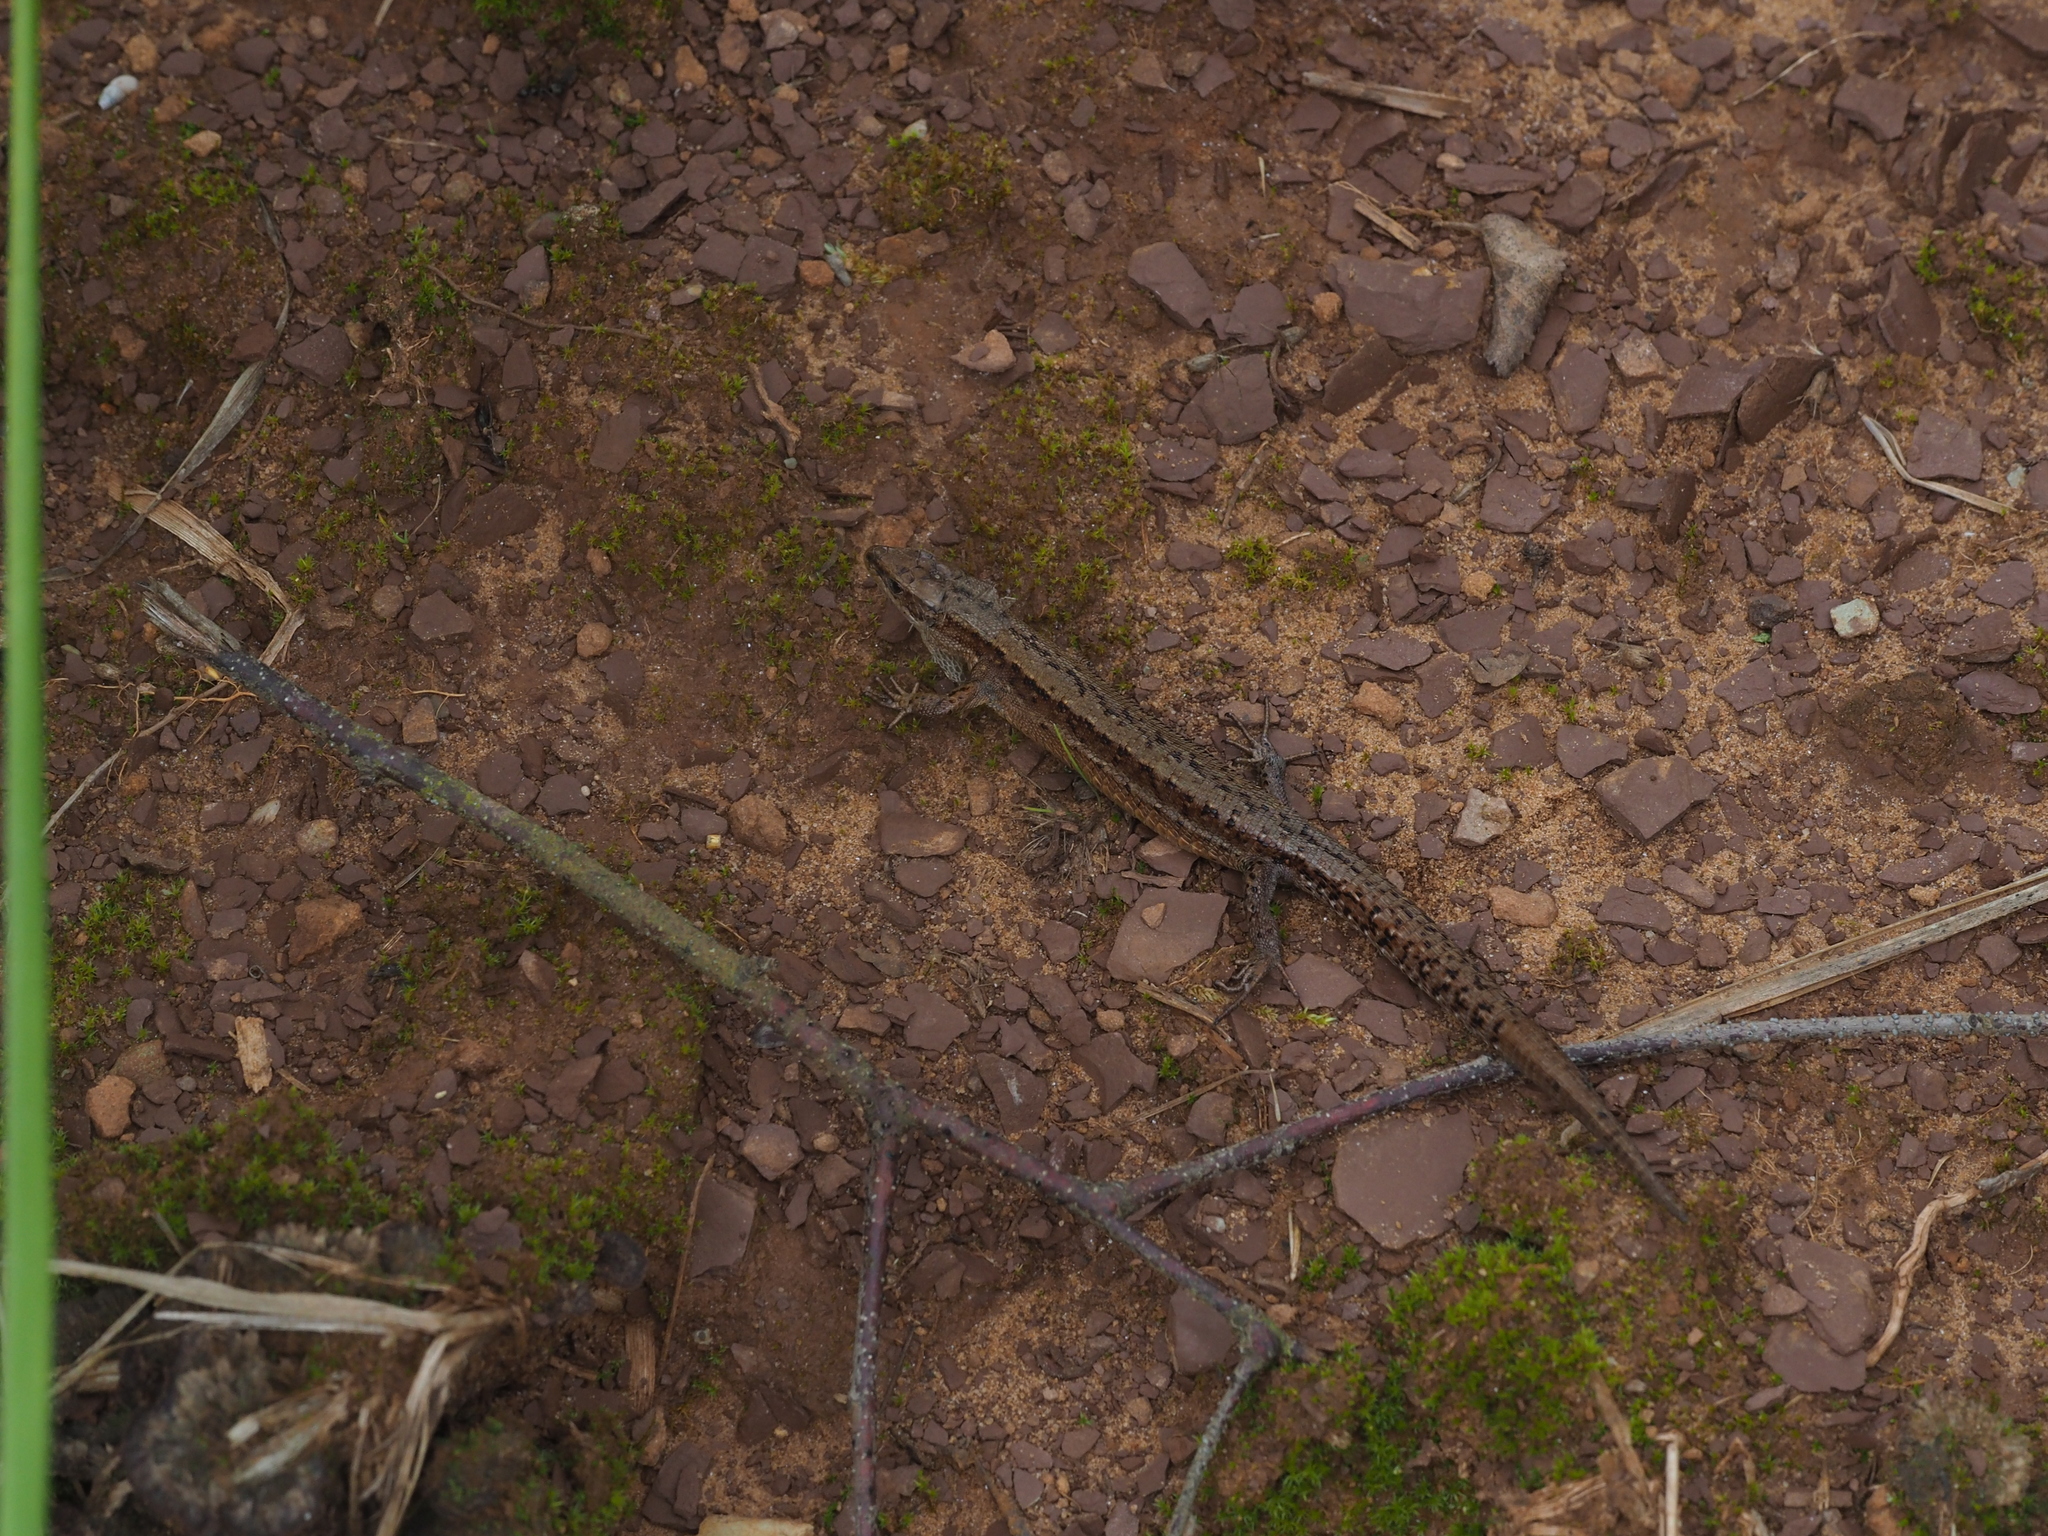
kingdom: Animalia
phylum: Chordata
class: Squamata
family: Lacertidae
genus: Zootoca
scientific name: Zootoca vivipara
